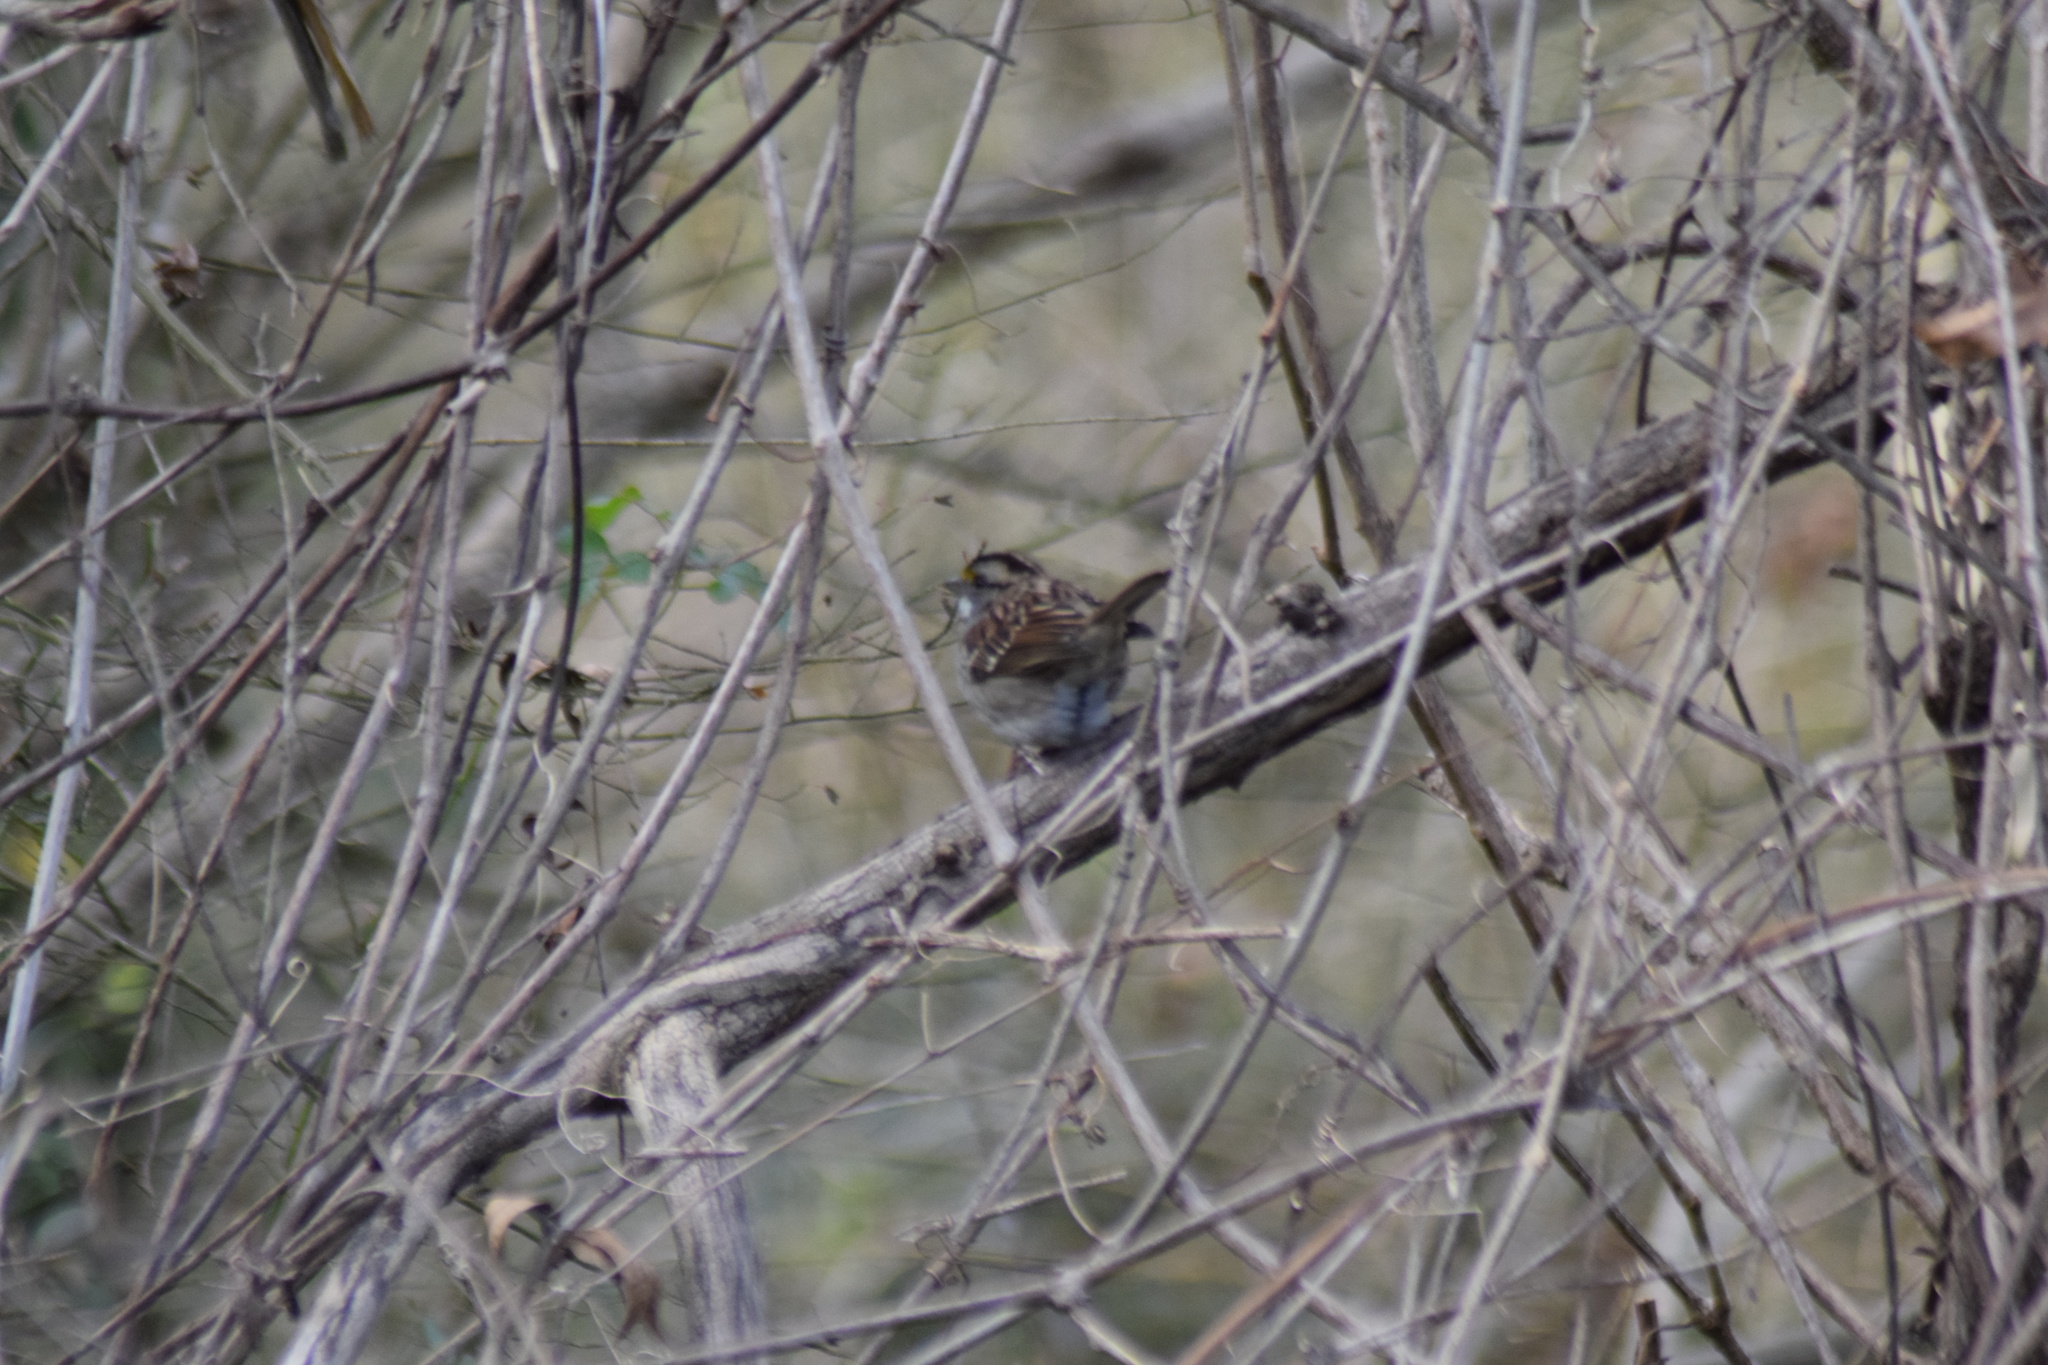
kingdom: Animalia
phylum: Chordata
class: Aves
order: Passeriformes
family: Passerellidae
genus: Zonotrichia
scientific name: Zonotrichia albicollis
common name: White-throated sparrow
